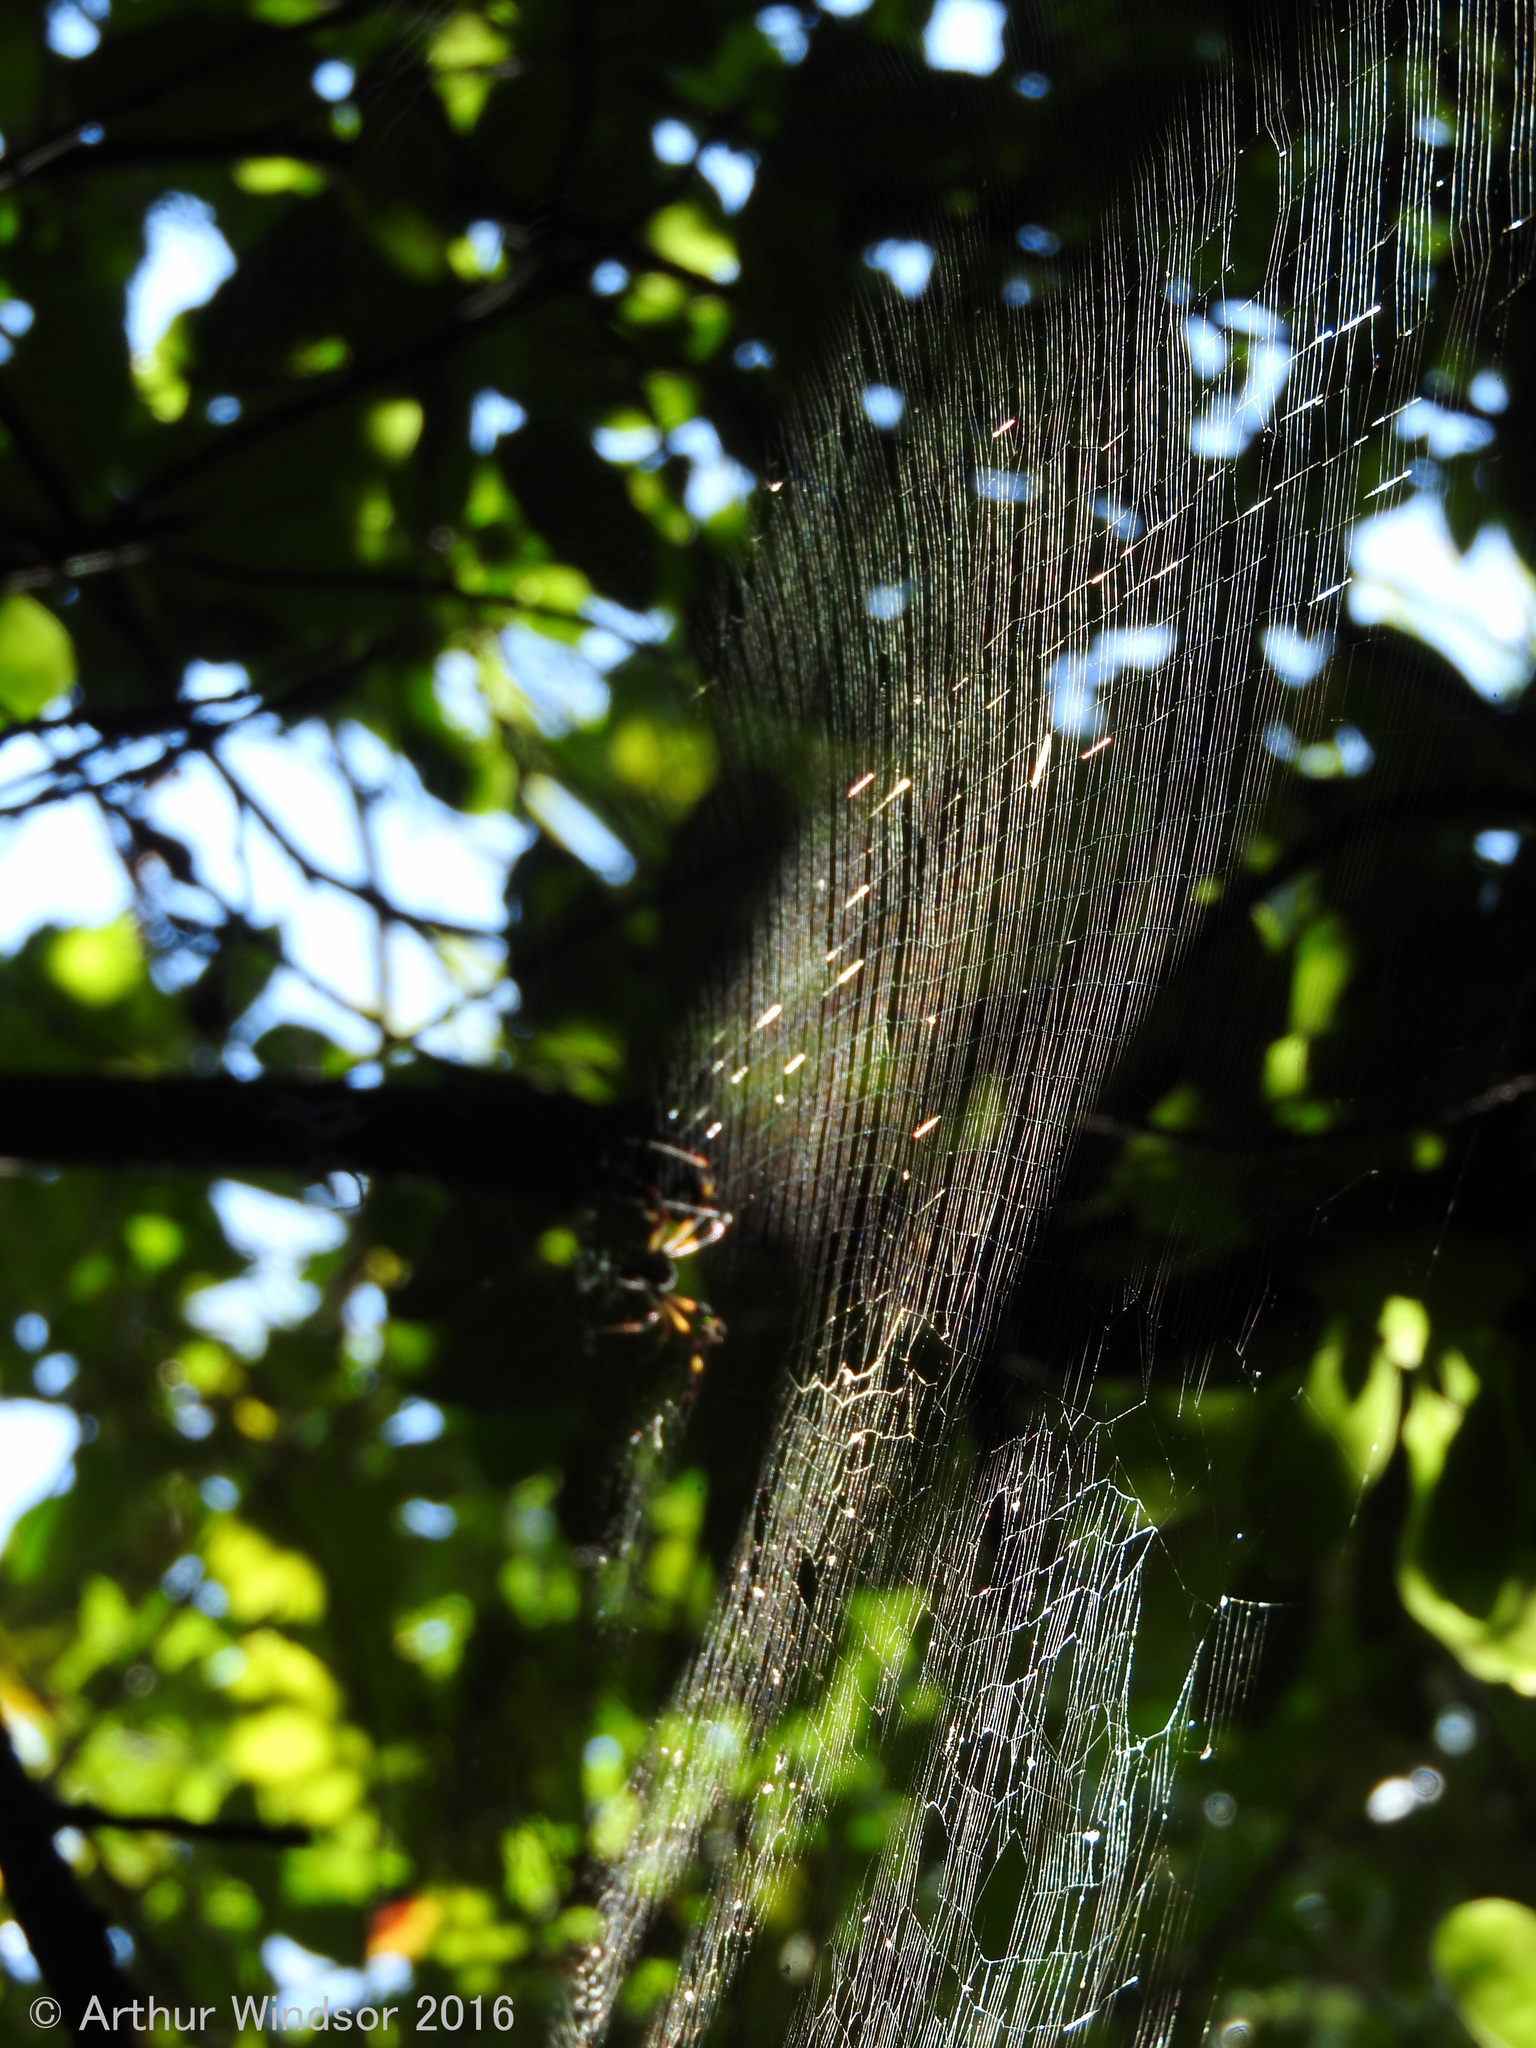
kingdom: Animalia
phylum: Arthropoda
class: Arachnida
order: Araneae
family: Araneidae
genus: Trichonephila
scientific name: Trichonephila clavipes
